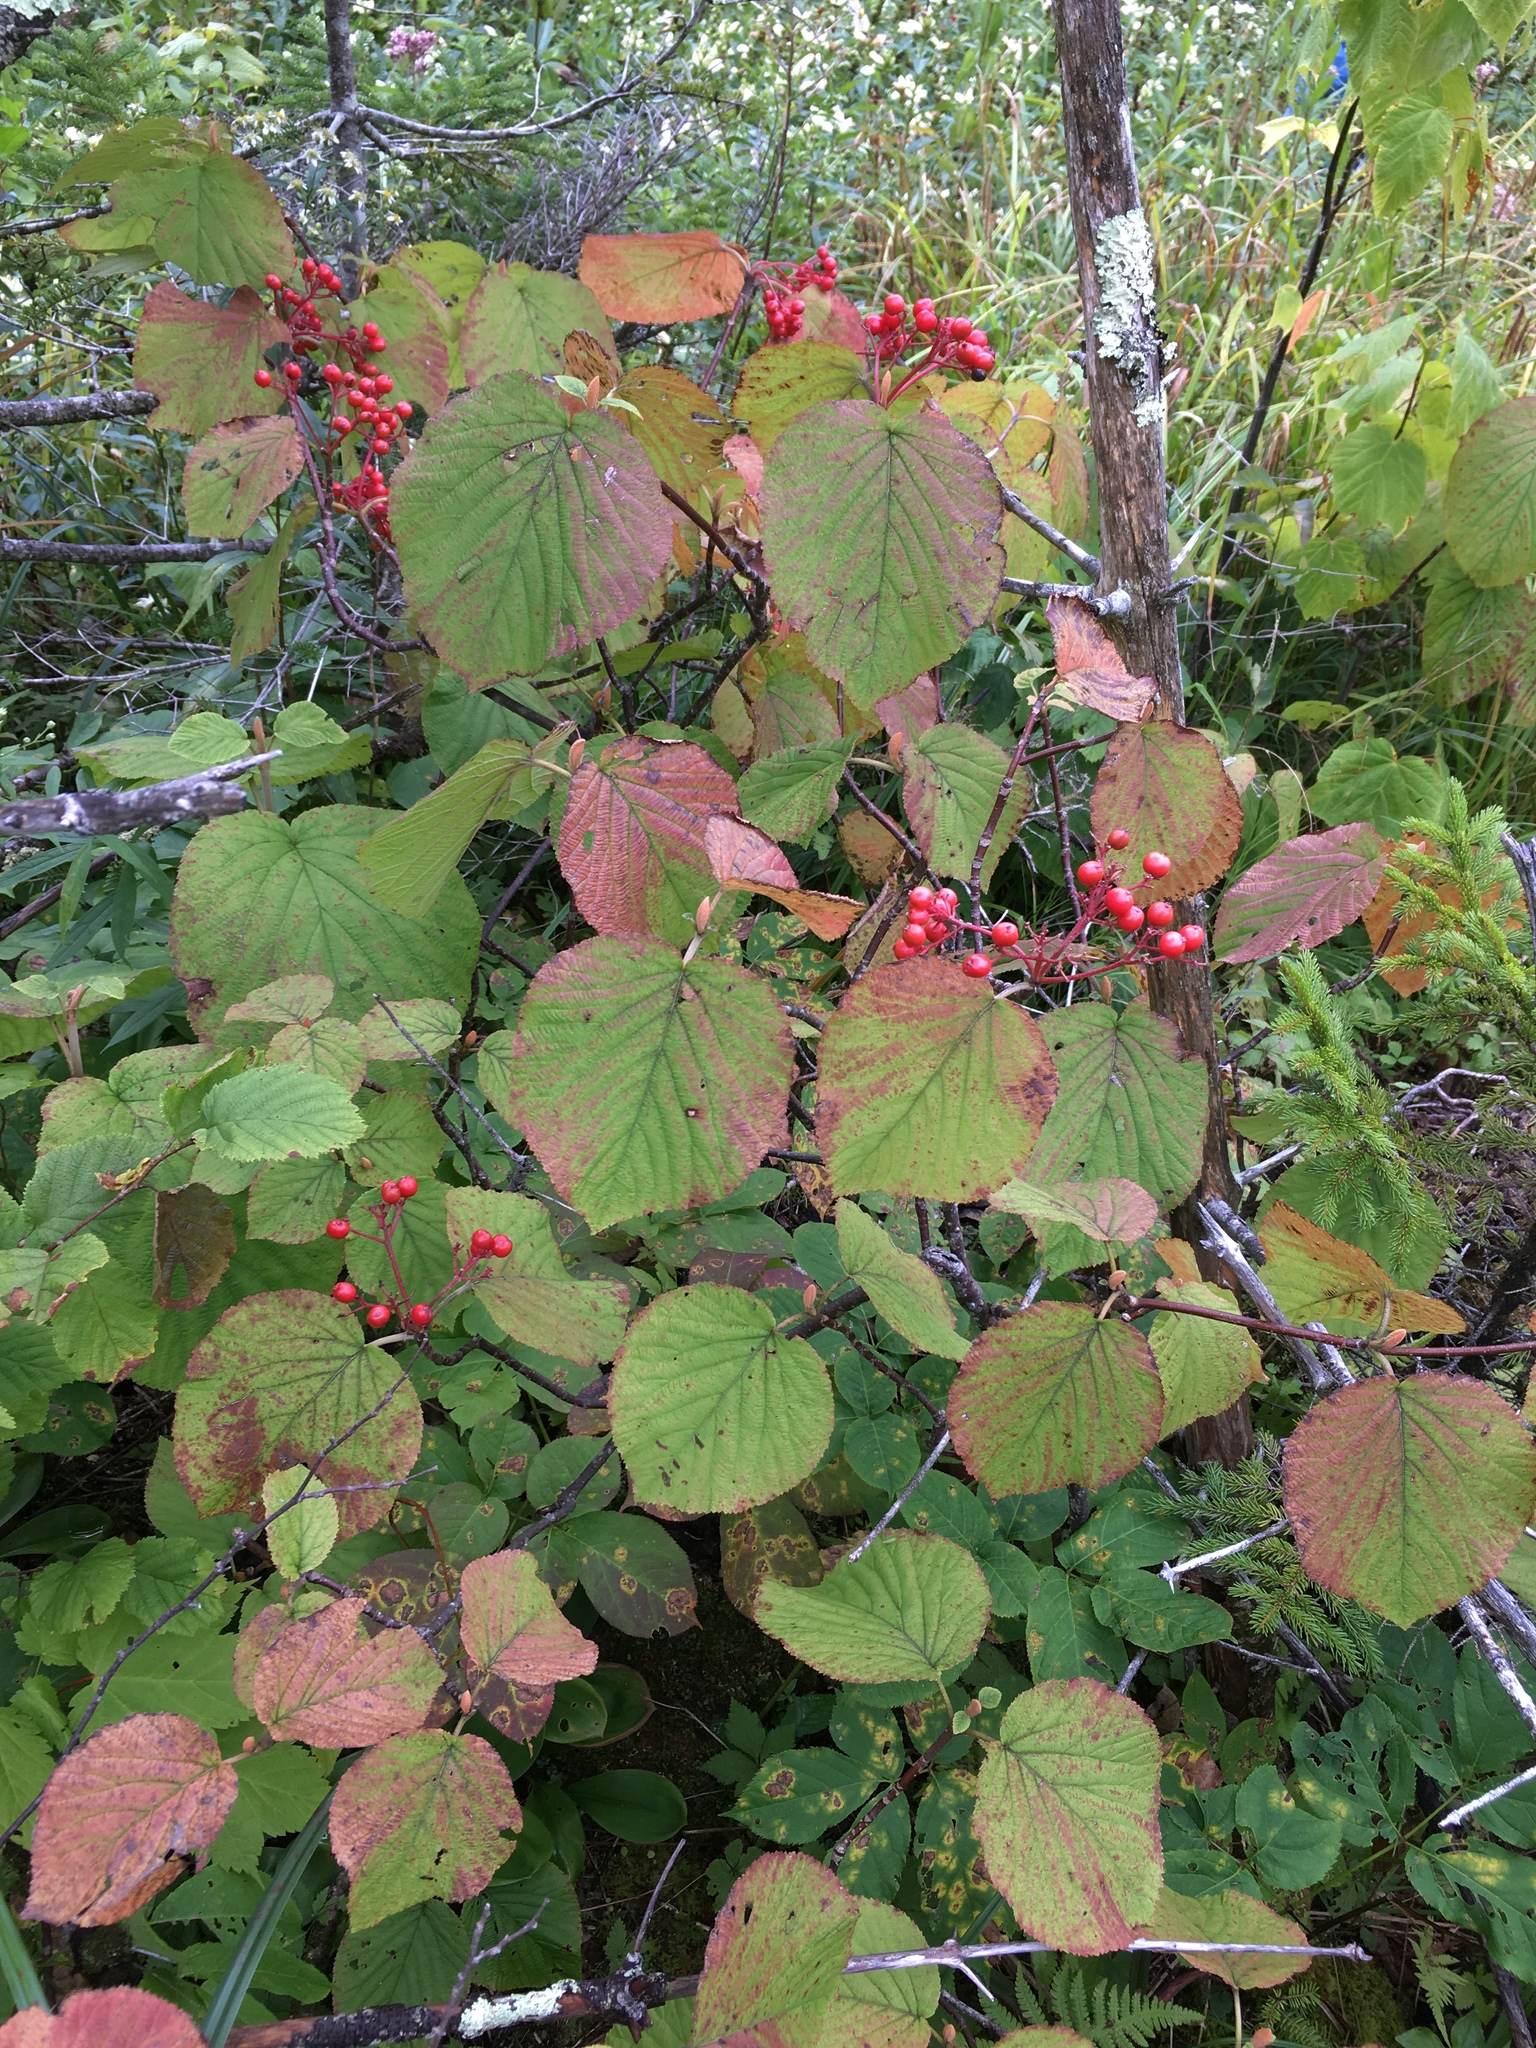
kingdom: Plantae
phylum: Tracheophyta
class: Magnoliopsida
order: Dipsacales
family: Viburnaceae
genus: Viburnum
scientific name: Viburnum lantanoides
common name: Hobblebush
